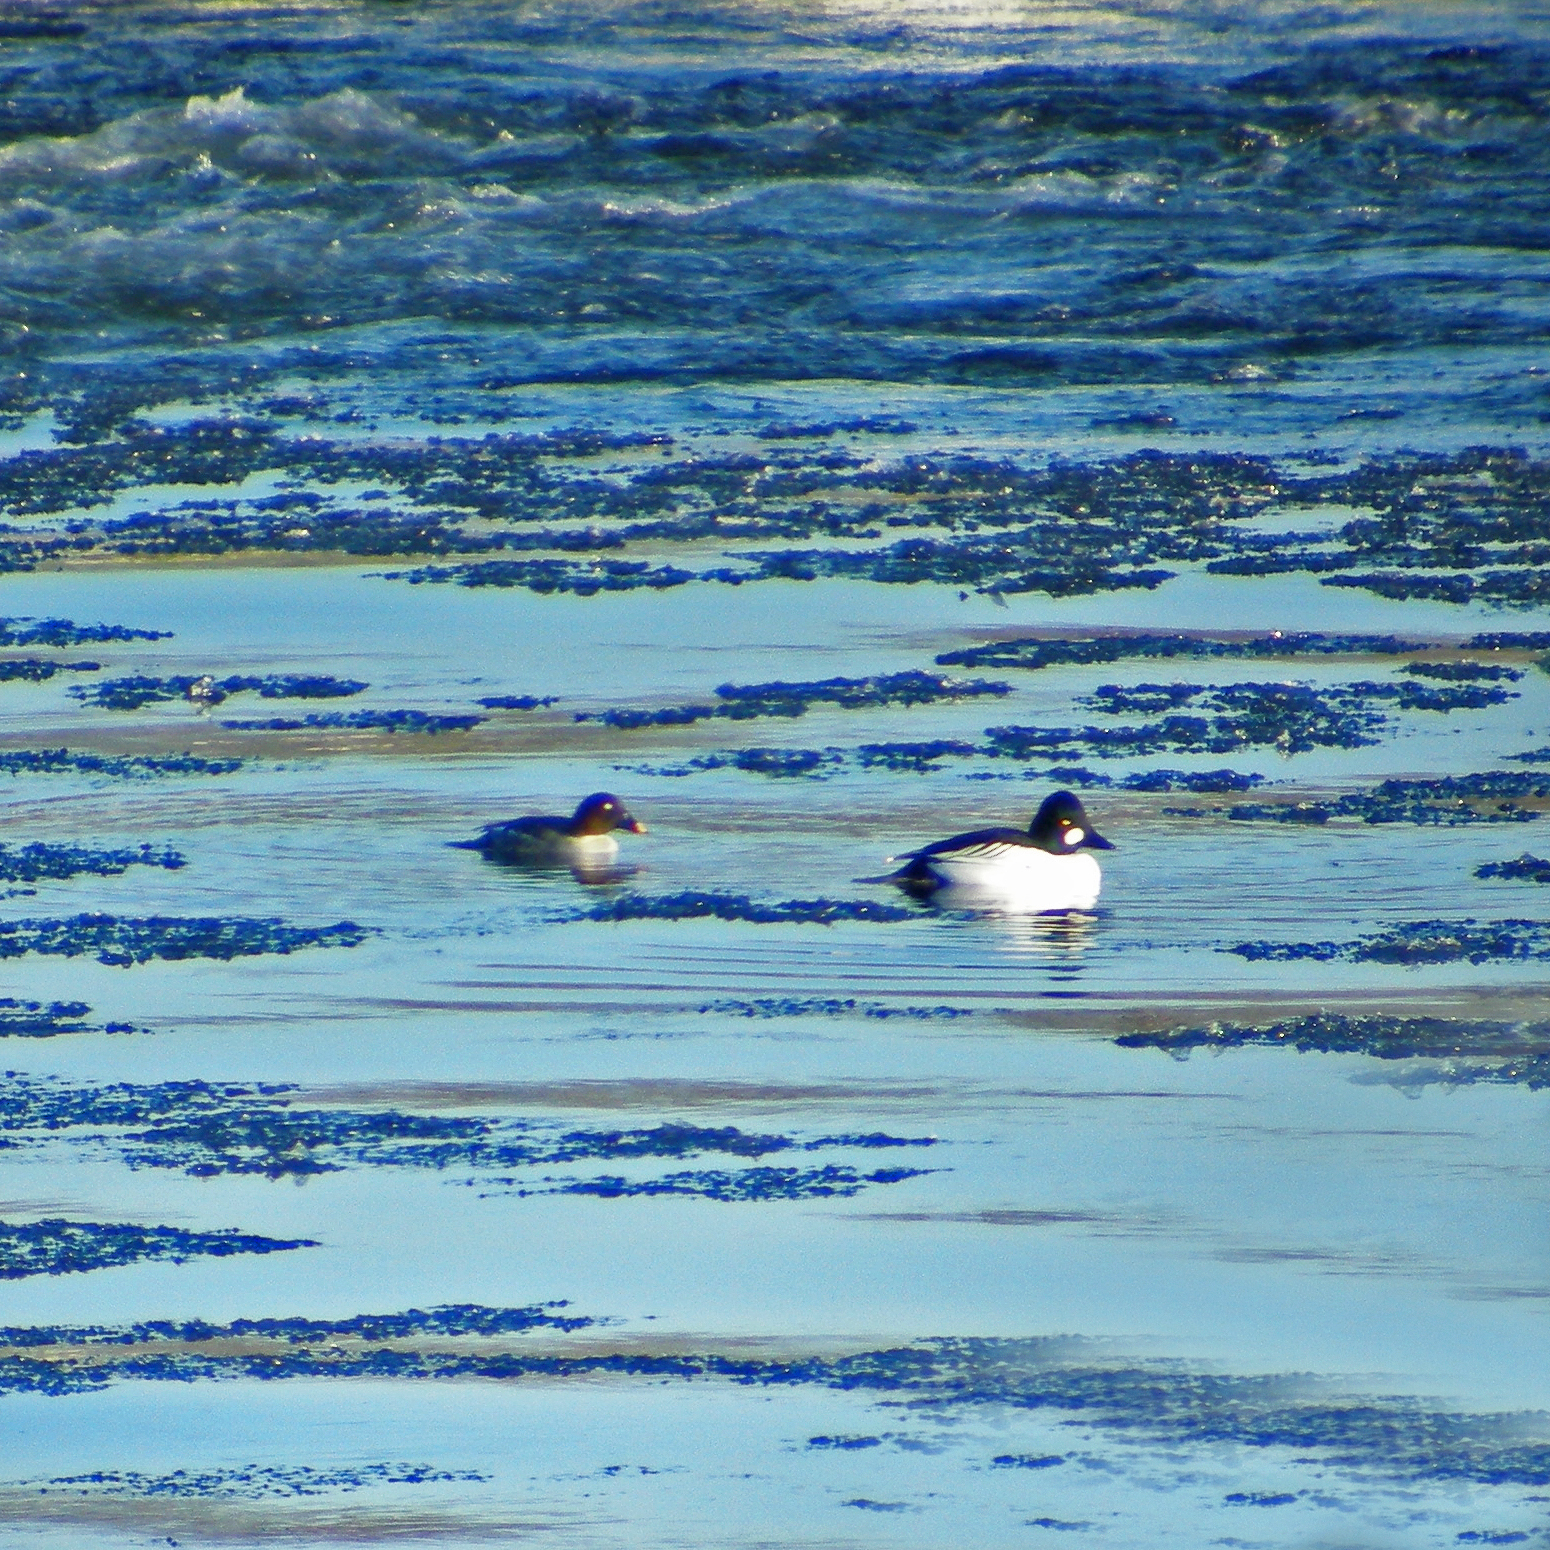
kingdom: Animalia
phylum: Chordata
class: Aves
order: Anseriformes
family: Anatidae
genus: Bucephala
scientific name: Bucephala clangula
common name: Common goldeneye
